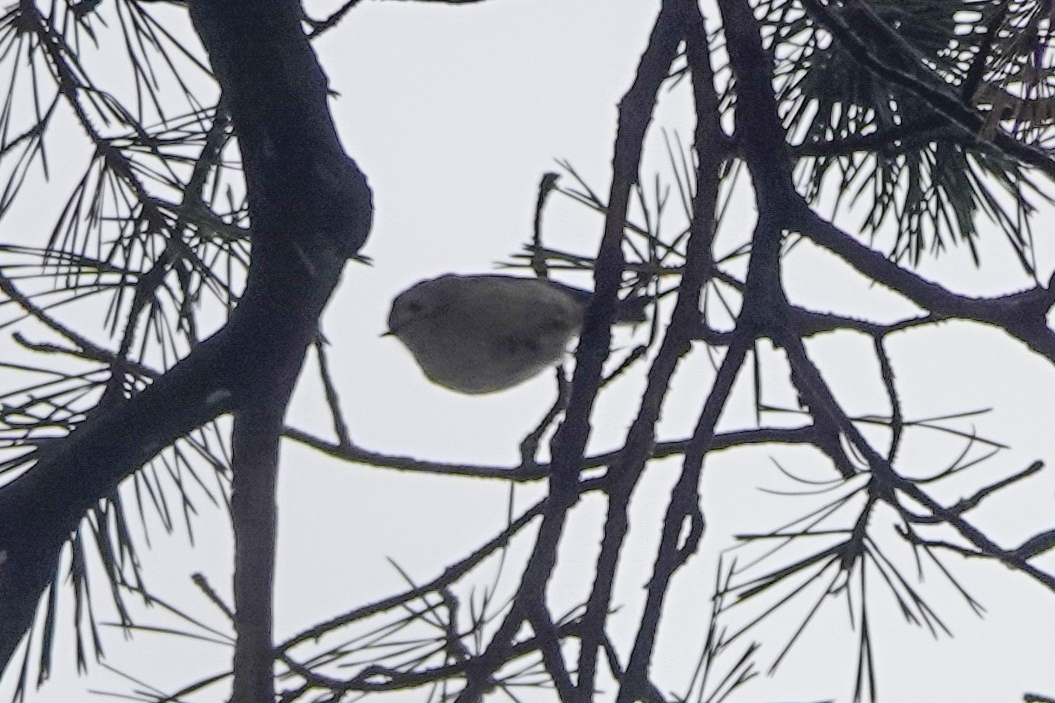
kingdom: Animalia
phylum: Chordata
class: Aves
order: Passeriformes
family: Regulidae
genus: Regulus
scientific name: Regulus regulus
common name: Goldcrest
